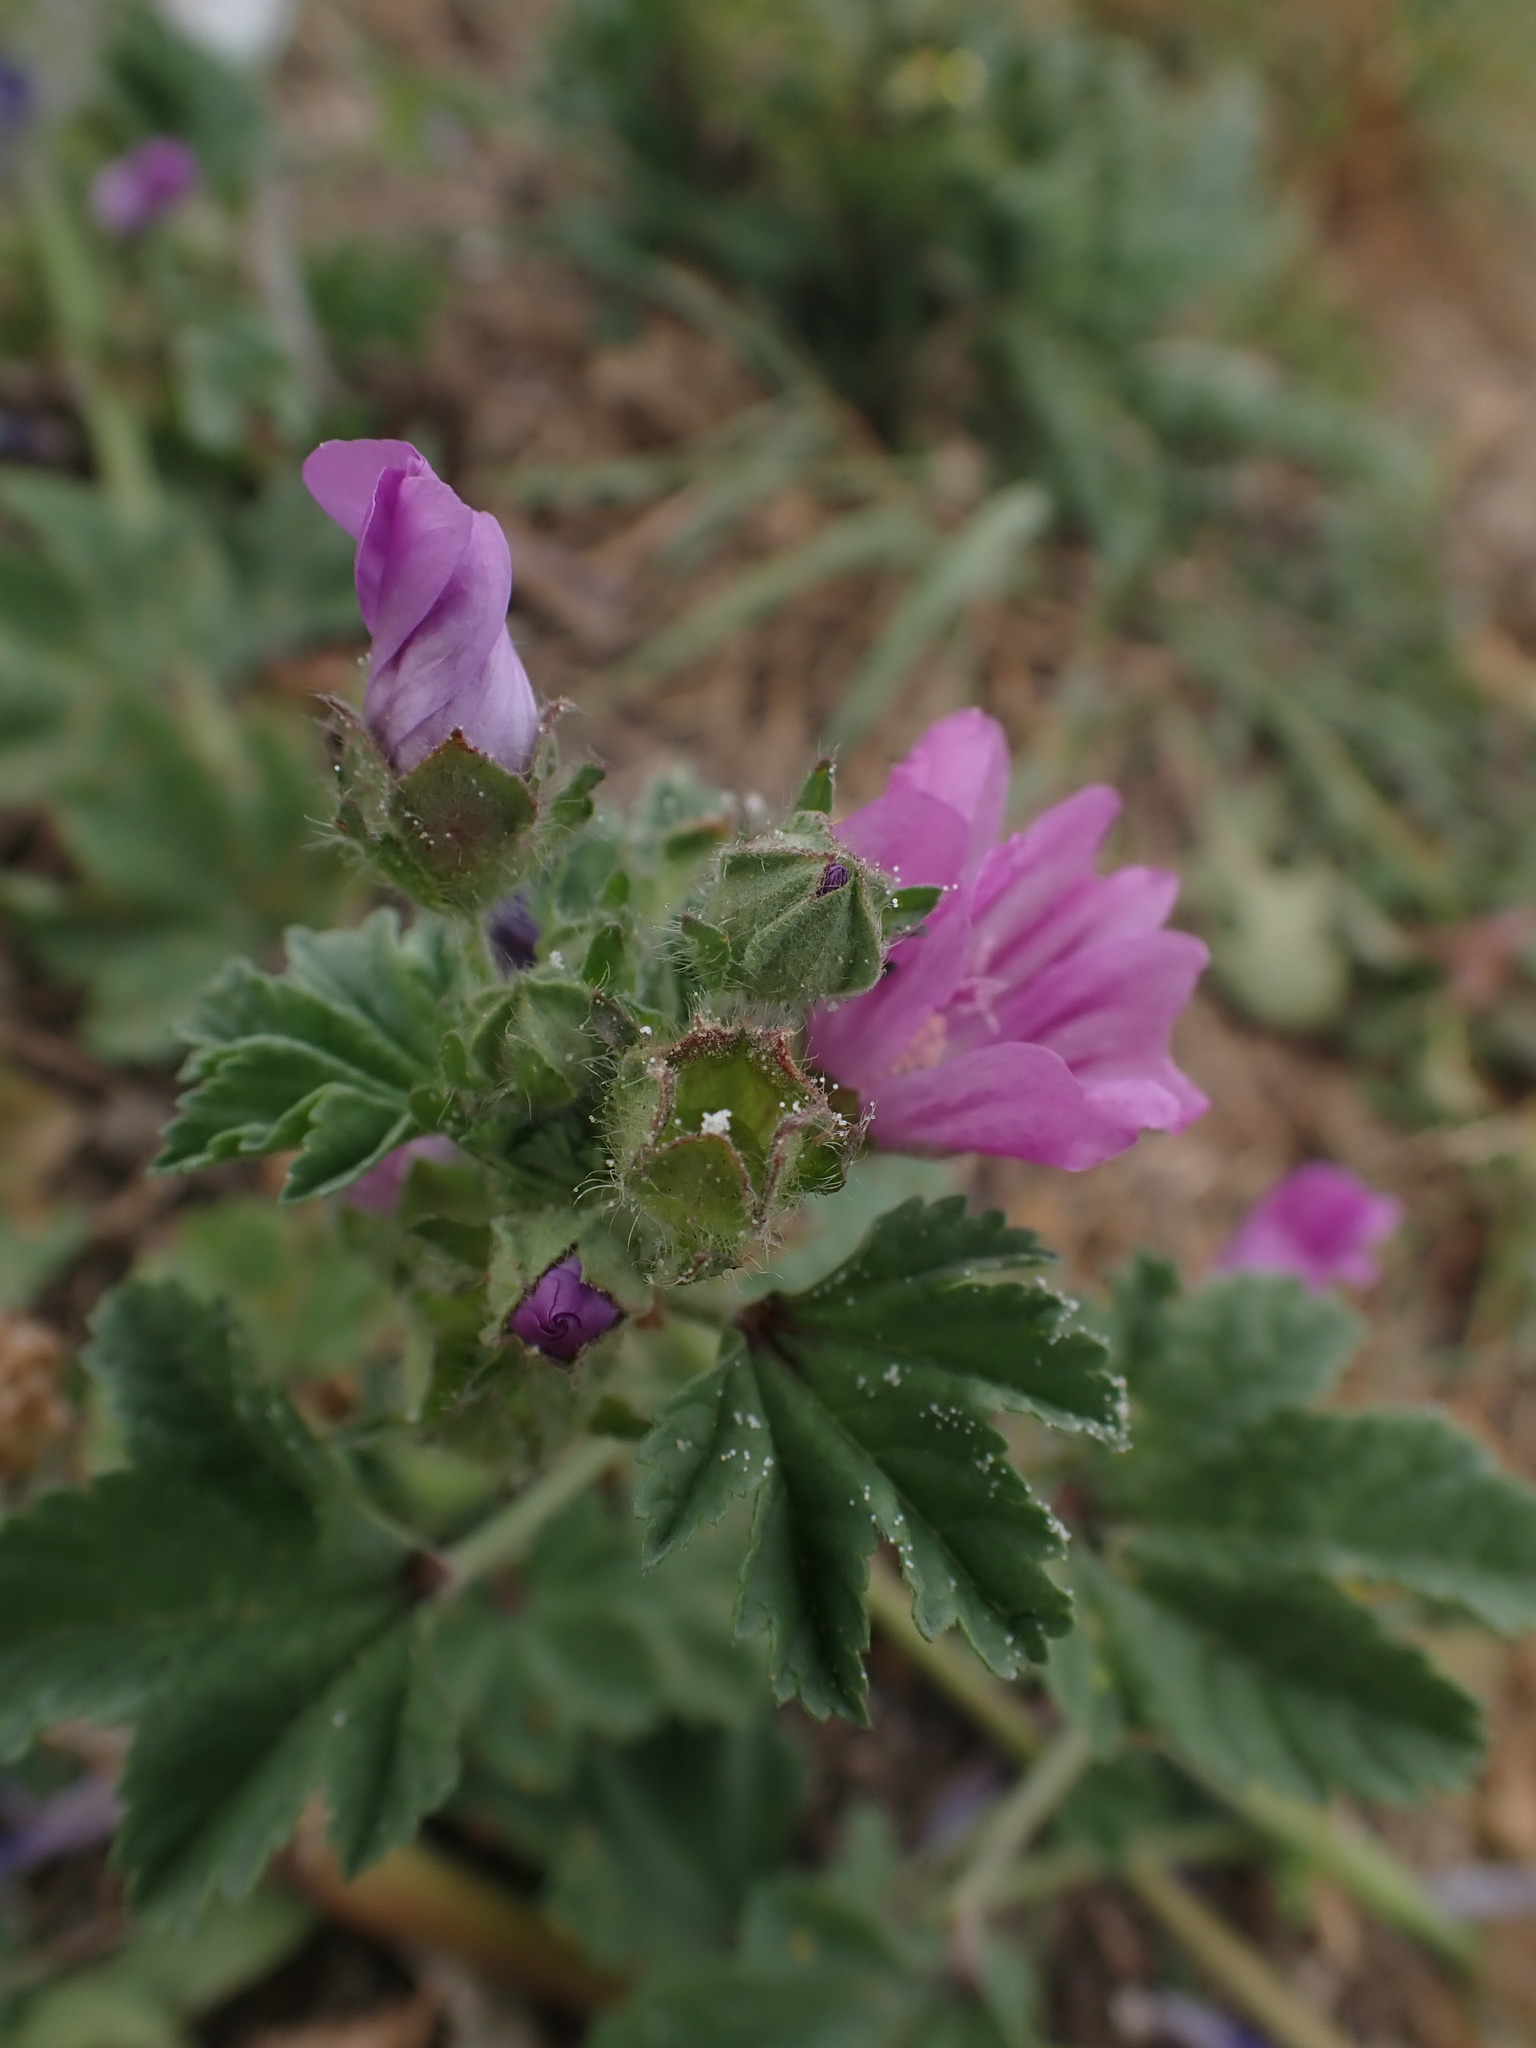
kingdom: Plantae
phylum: Tracheophyta
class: Magnoliopsida
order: Malvales
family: Malvaceae
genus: Malva
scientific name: Malva sylvestris
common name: Common mallow
